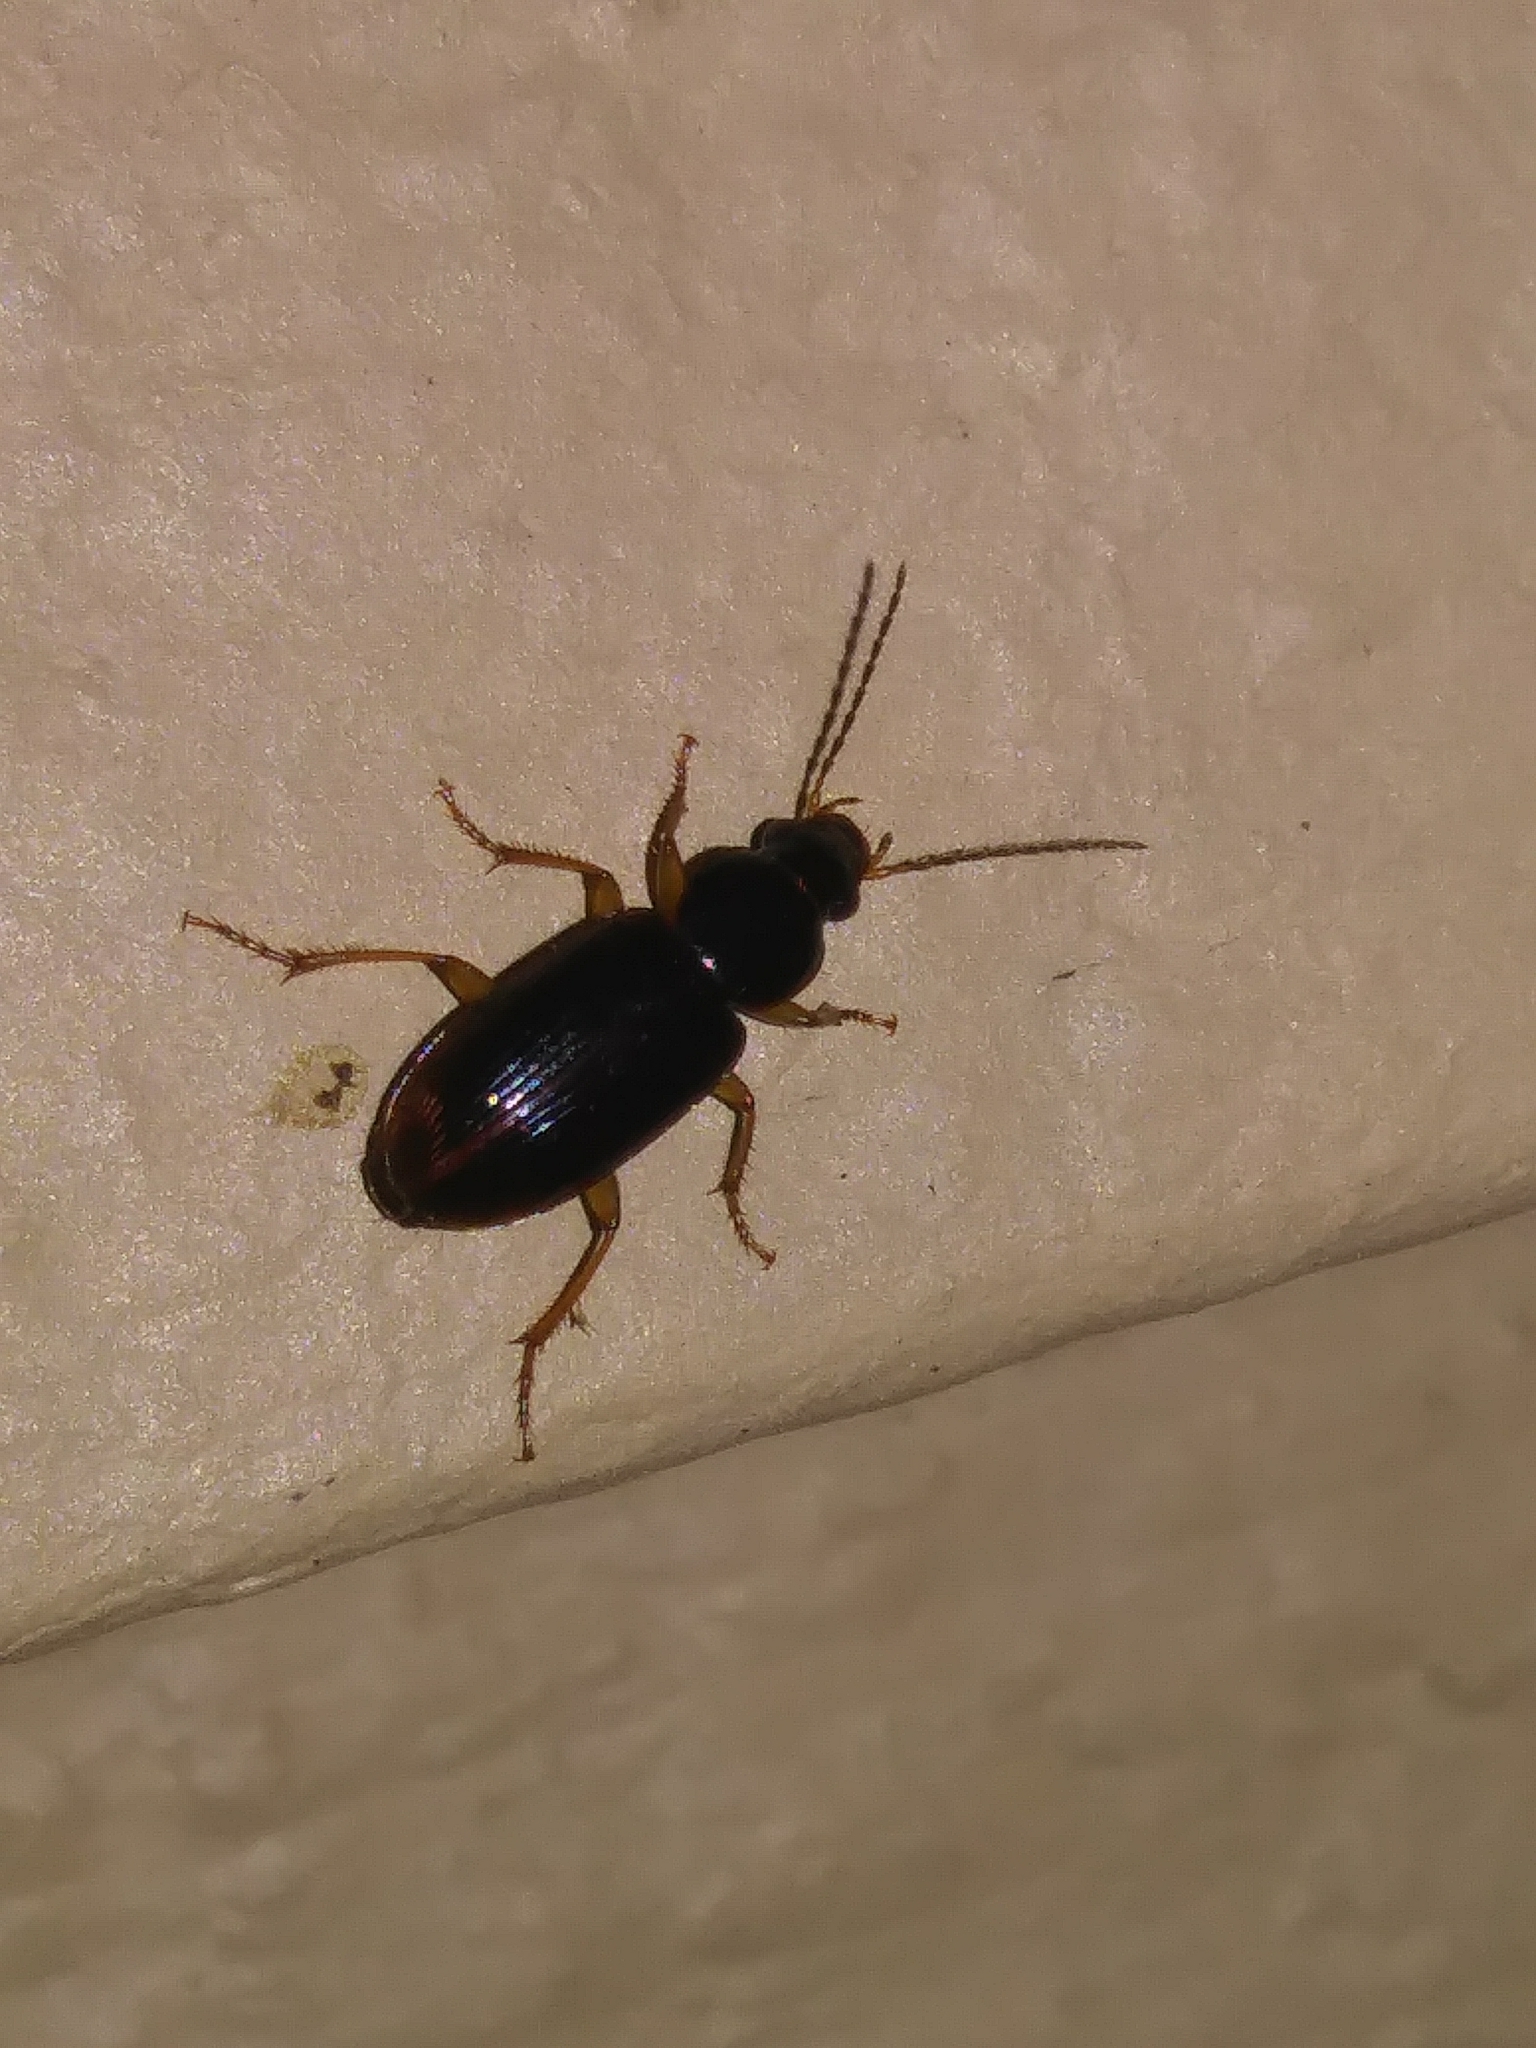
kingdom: Animalia
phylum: Arthropoda
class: Insecta
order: Coleoptera
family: Carabidae
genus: Stenolophus
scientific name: Stenolophus ochropezus
